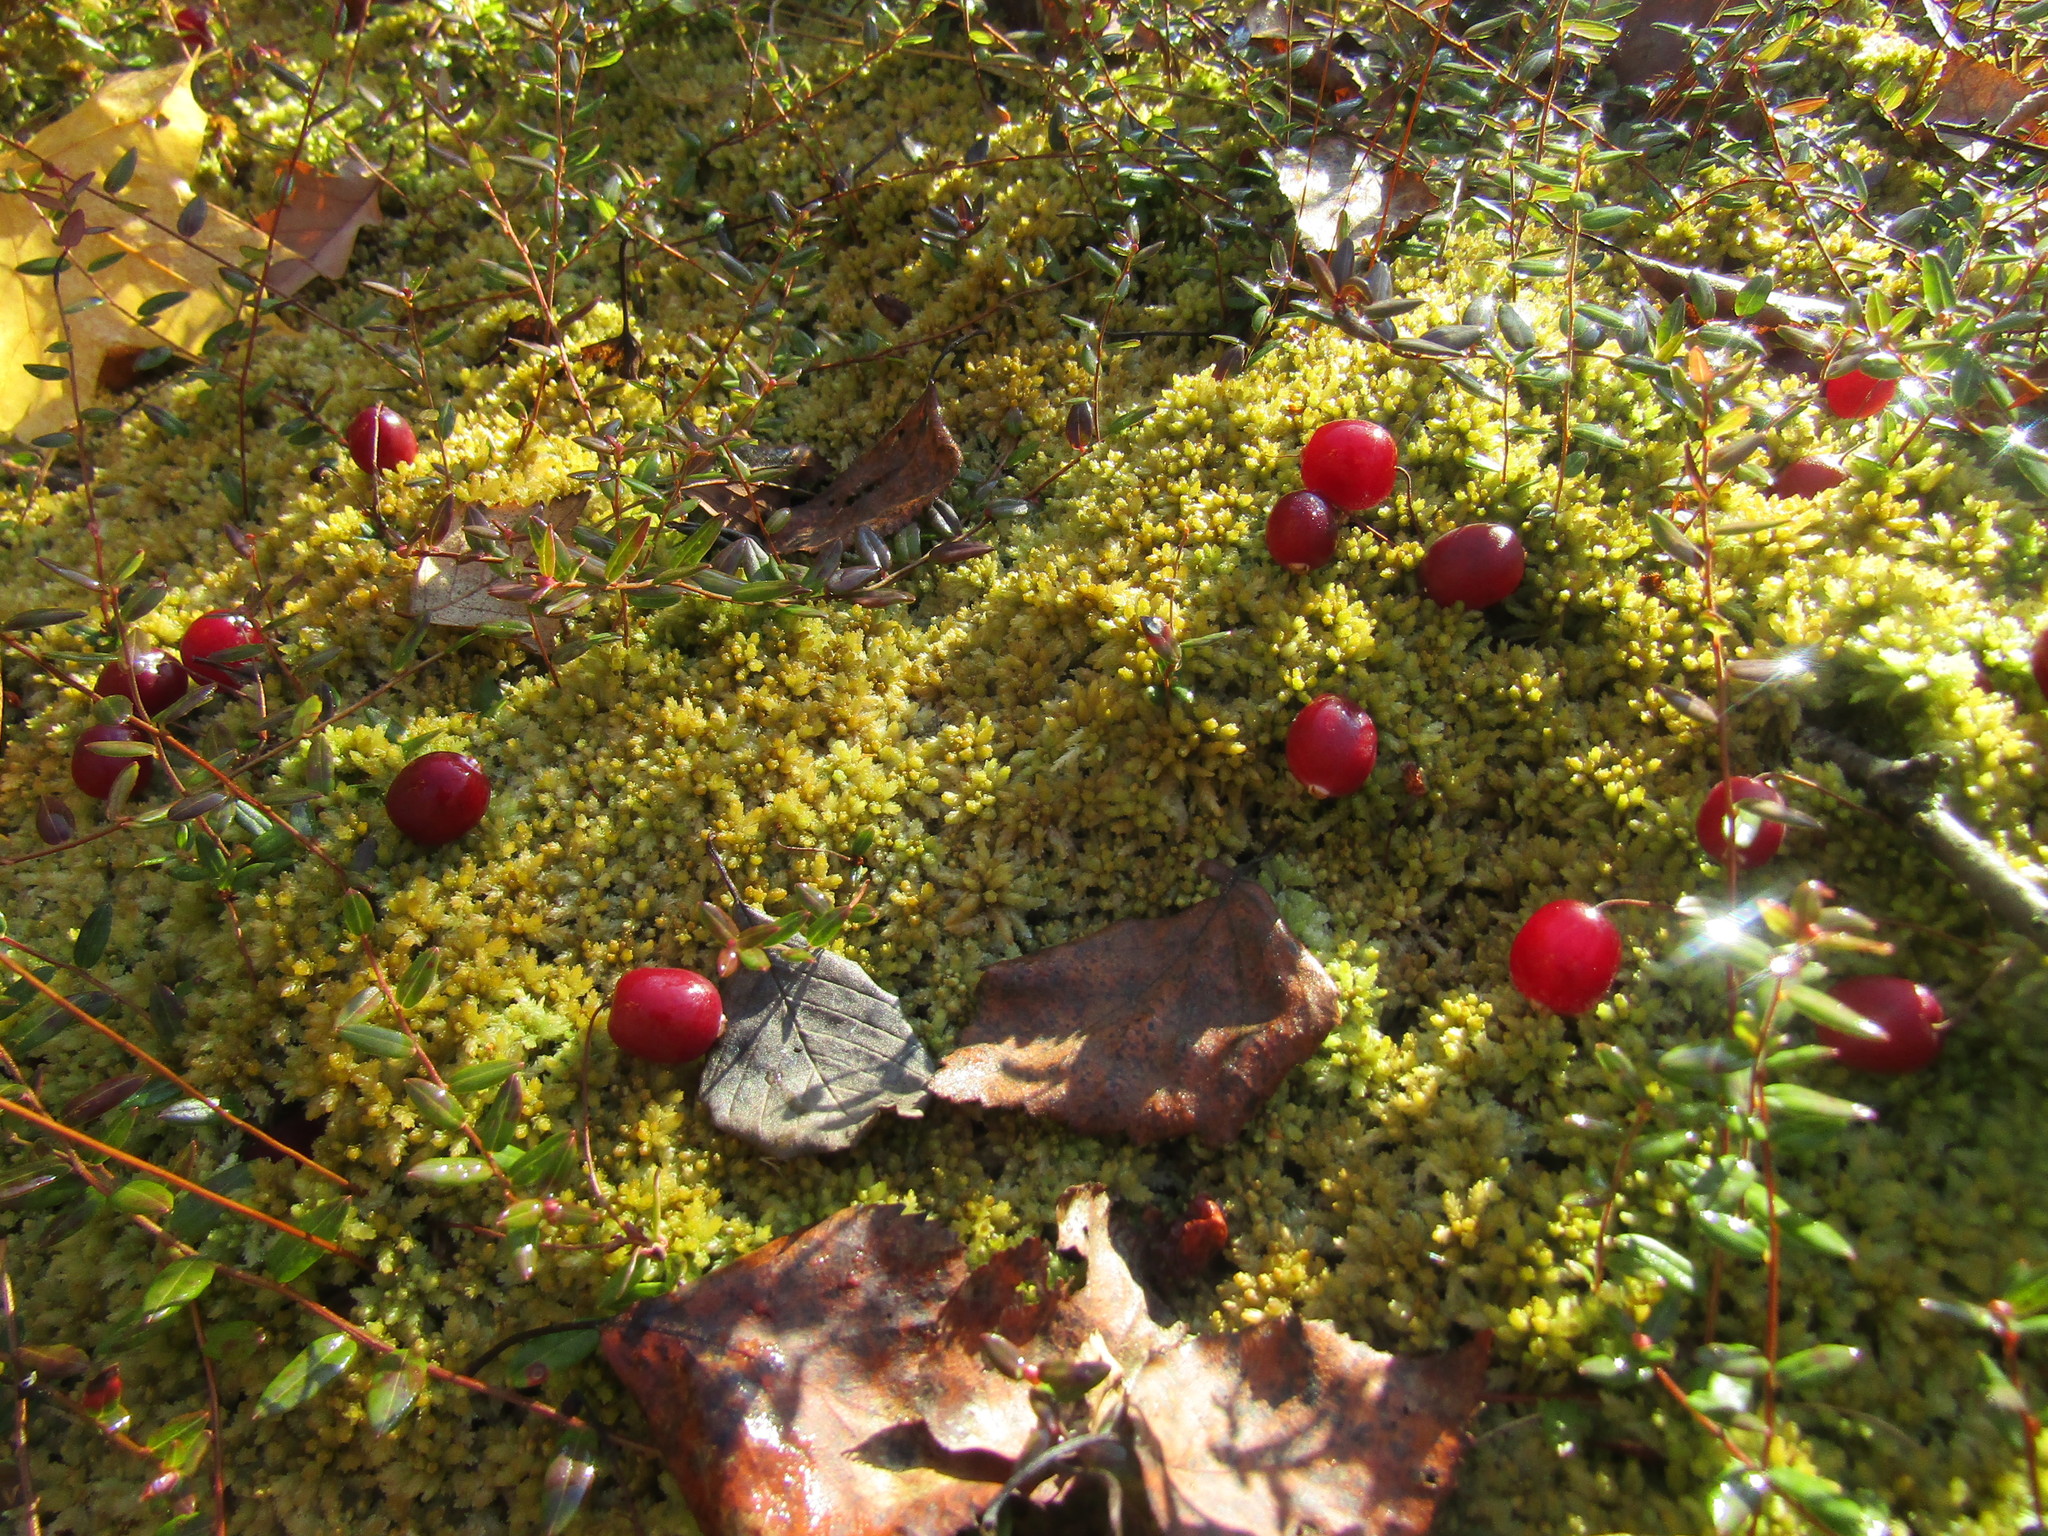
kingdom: Plantae
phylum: Tracheophyta
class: Magnoliopsida
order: Ericales
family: Ericaceae
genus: Vaccinium
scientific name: Vaccinium oxycoccos
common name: Cranberry
